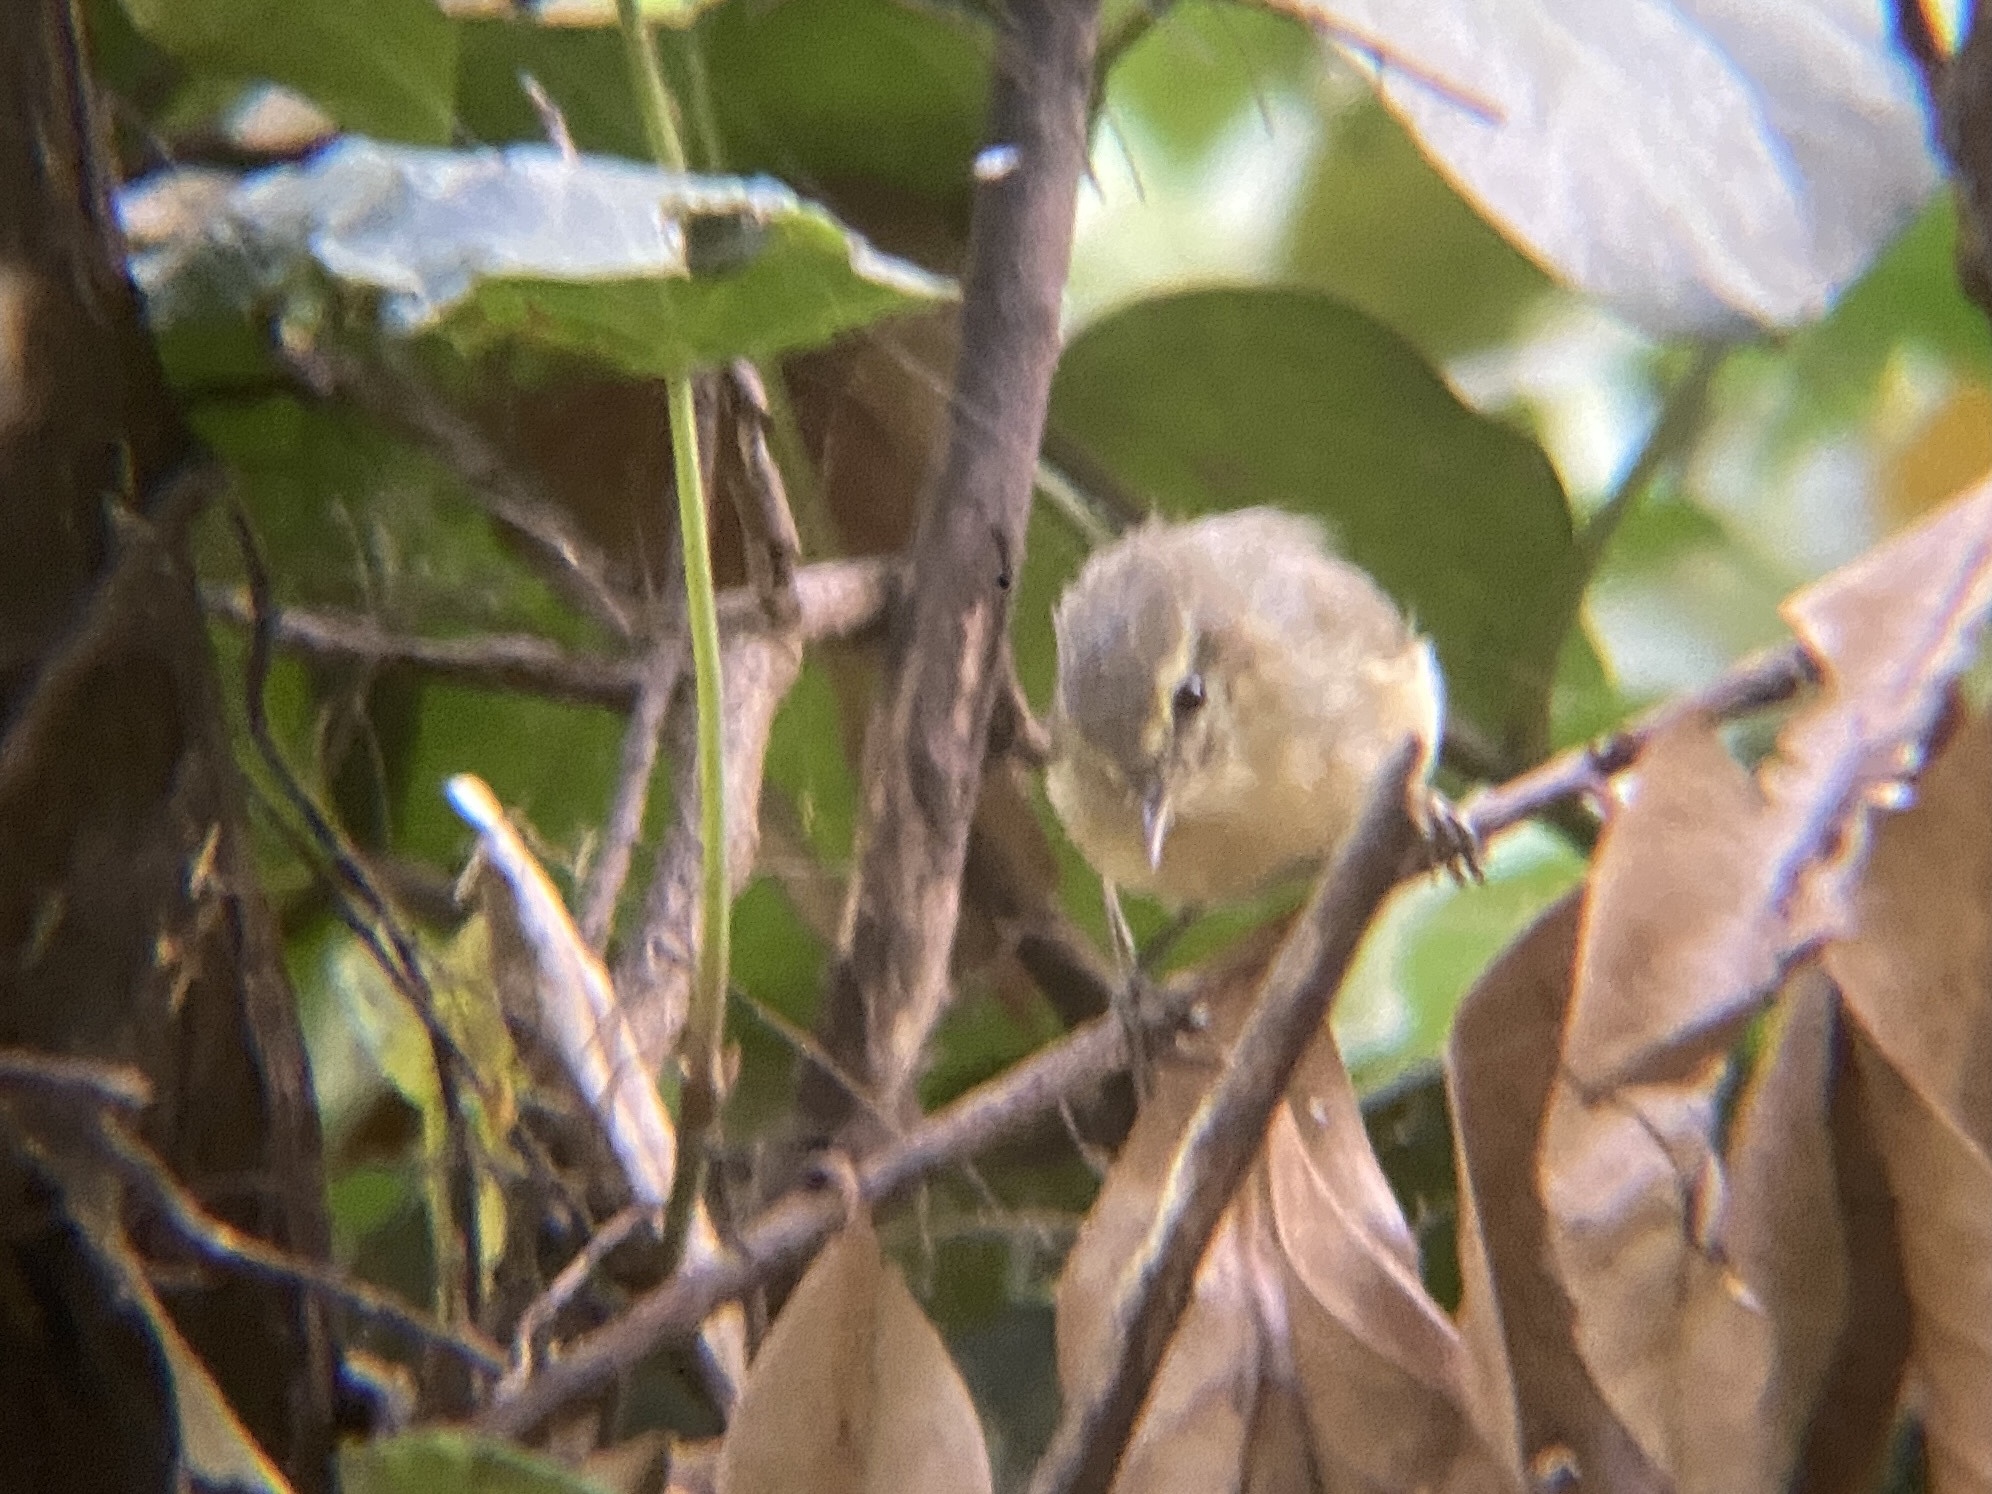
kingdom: Animalia
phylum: Chordata
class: Aves
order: Passeriformes
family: Phylloscopidae
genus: Phylloscopus
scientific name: Phylloscopus canariensis
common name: Canary islands chiffchaff
